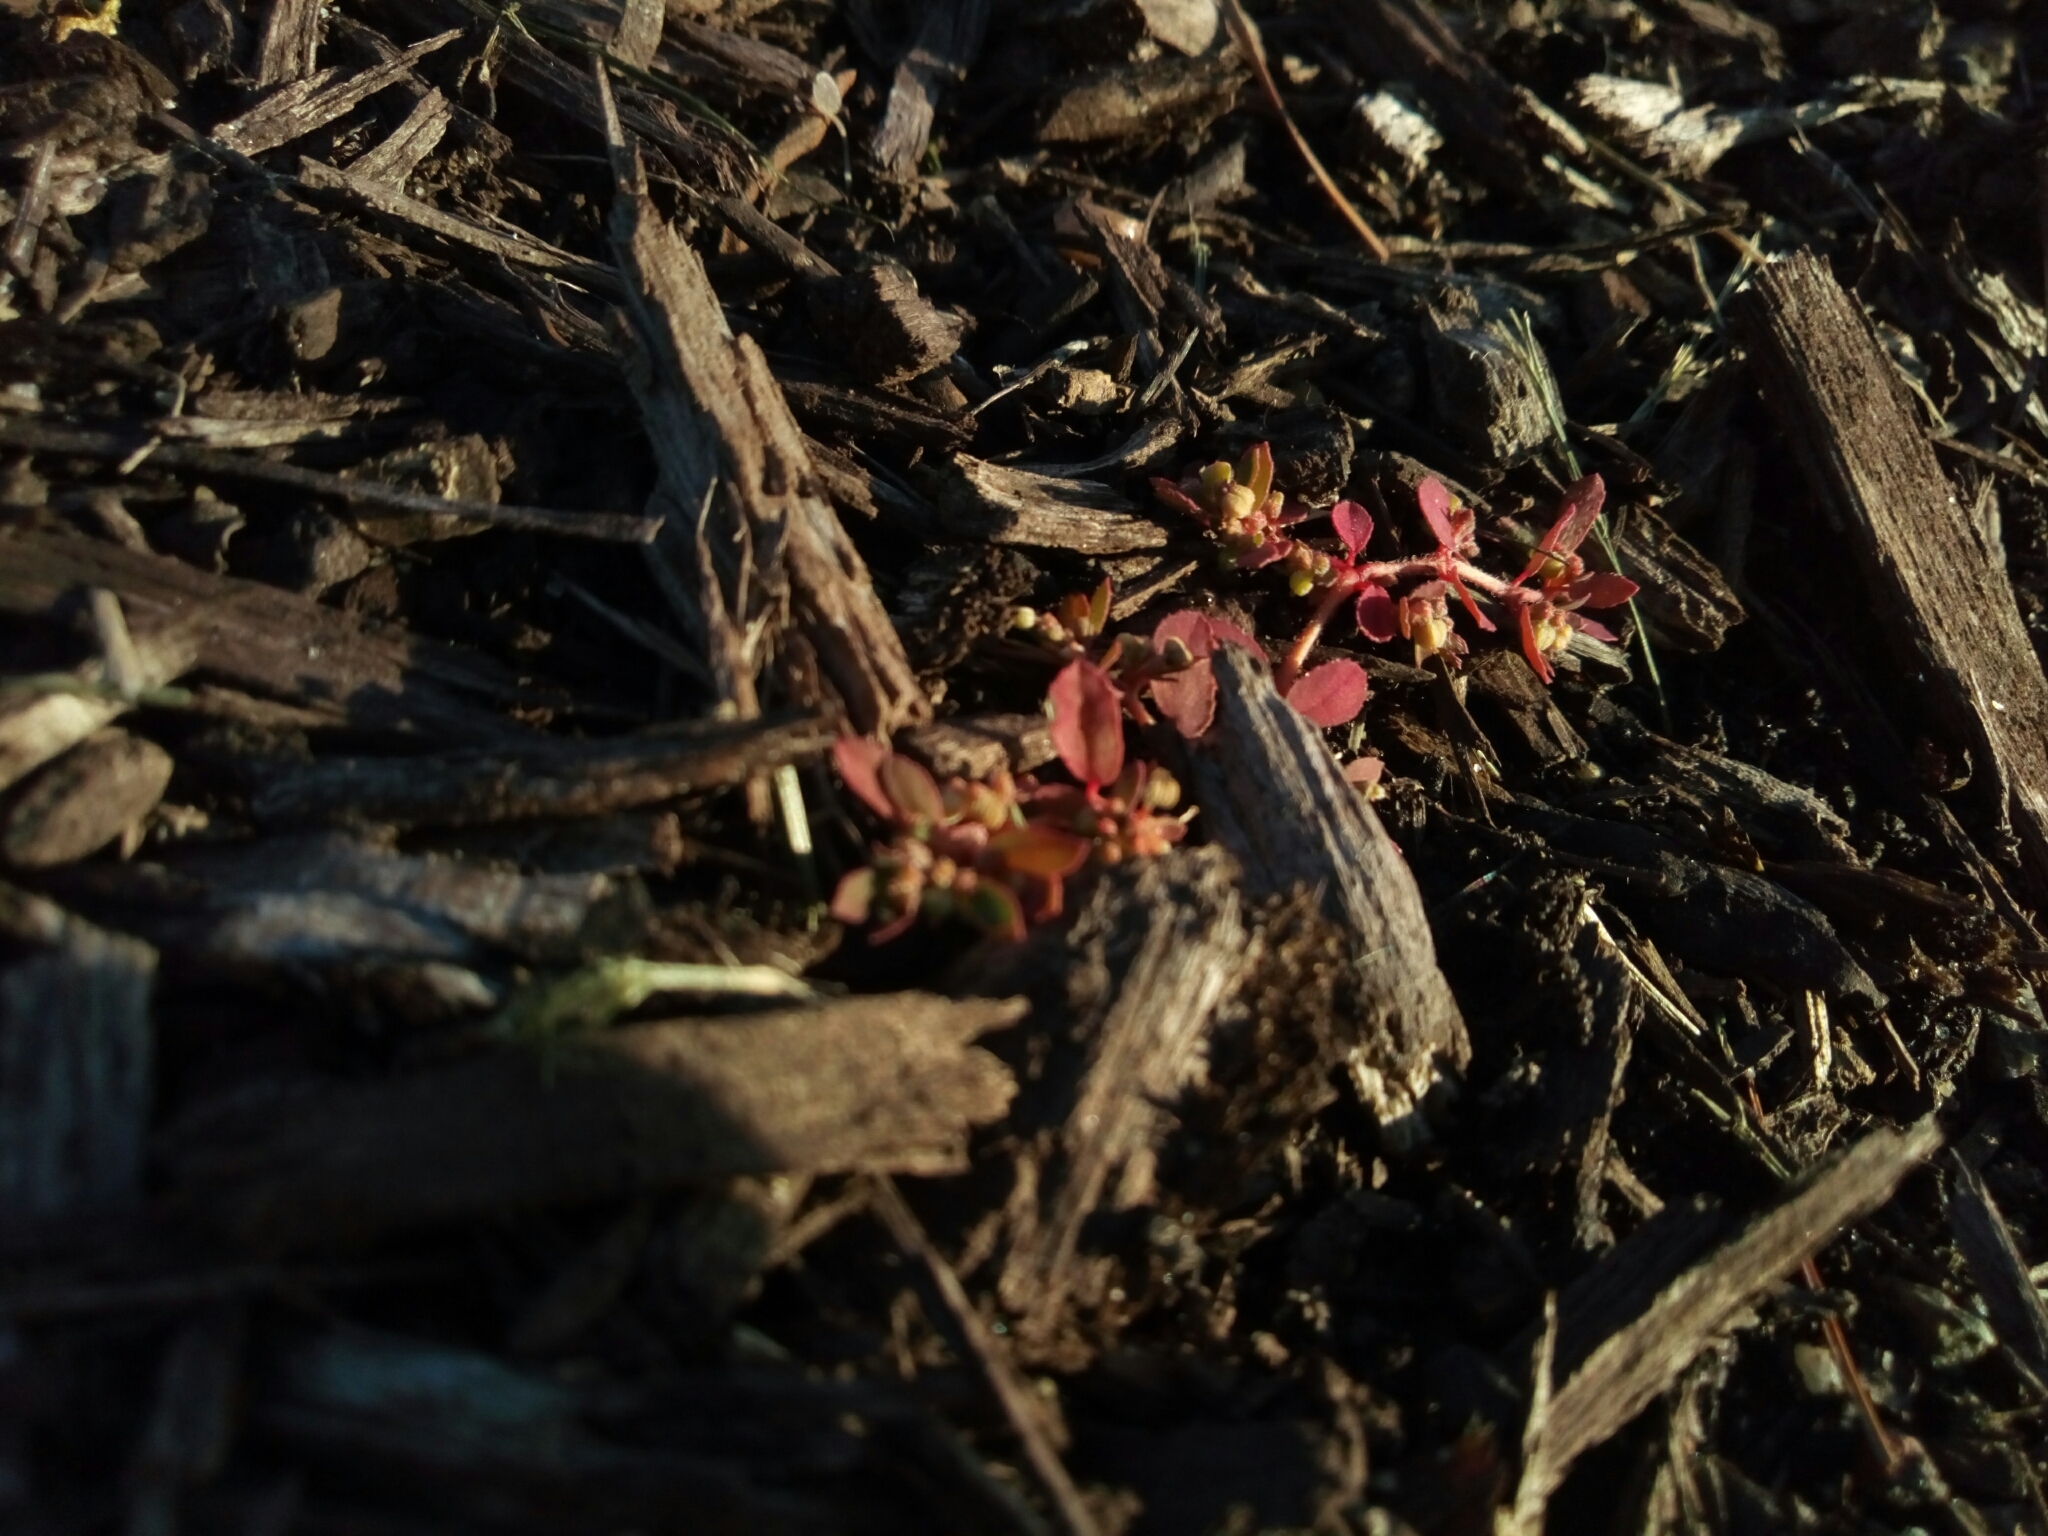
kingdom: Plantae
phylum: Tracheophyta
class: Magnoliopsida
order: Malpighiales
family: Euphorbiaceae
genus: Euphorbia
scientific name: Euphorbia maculata
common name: Spotted spurge
